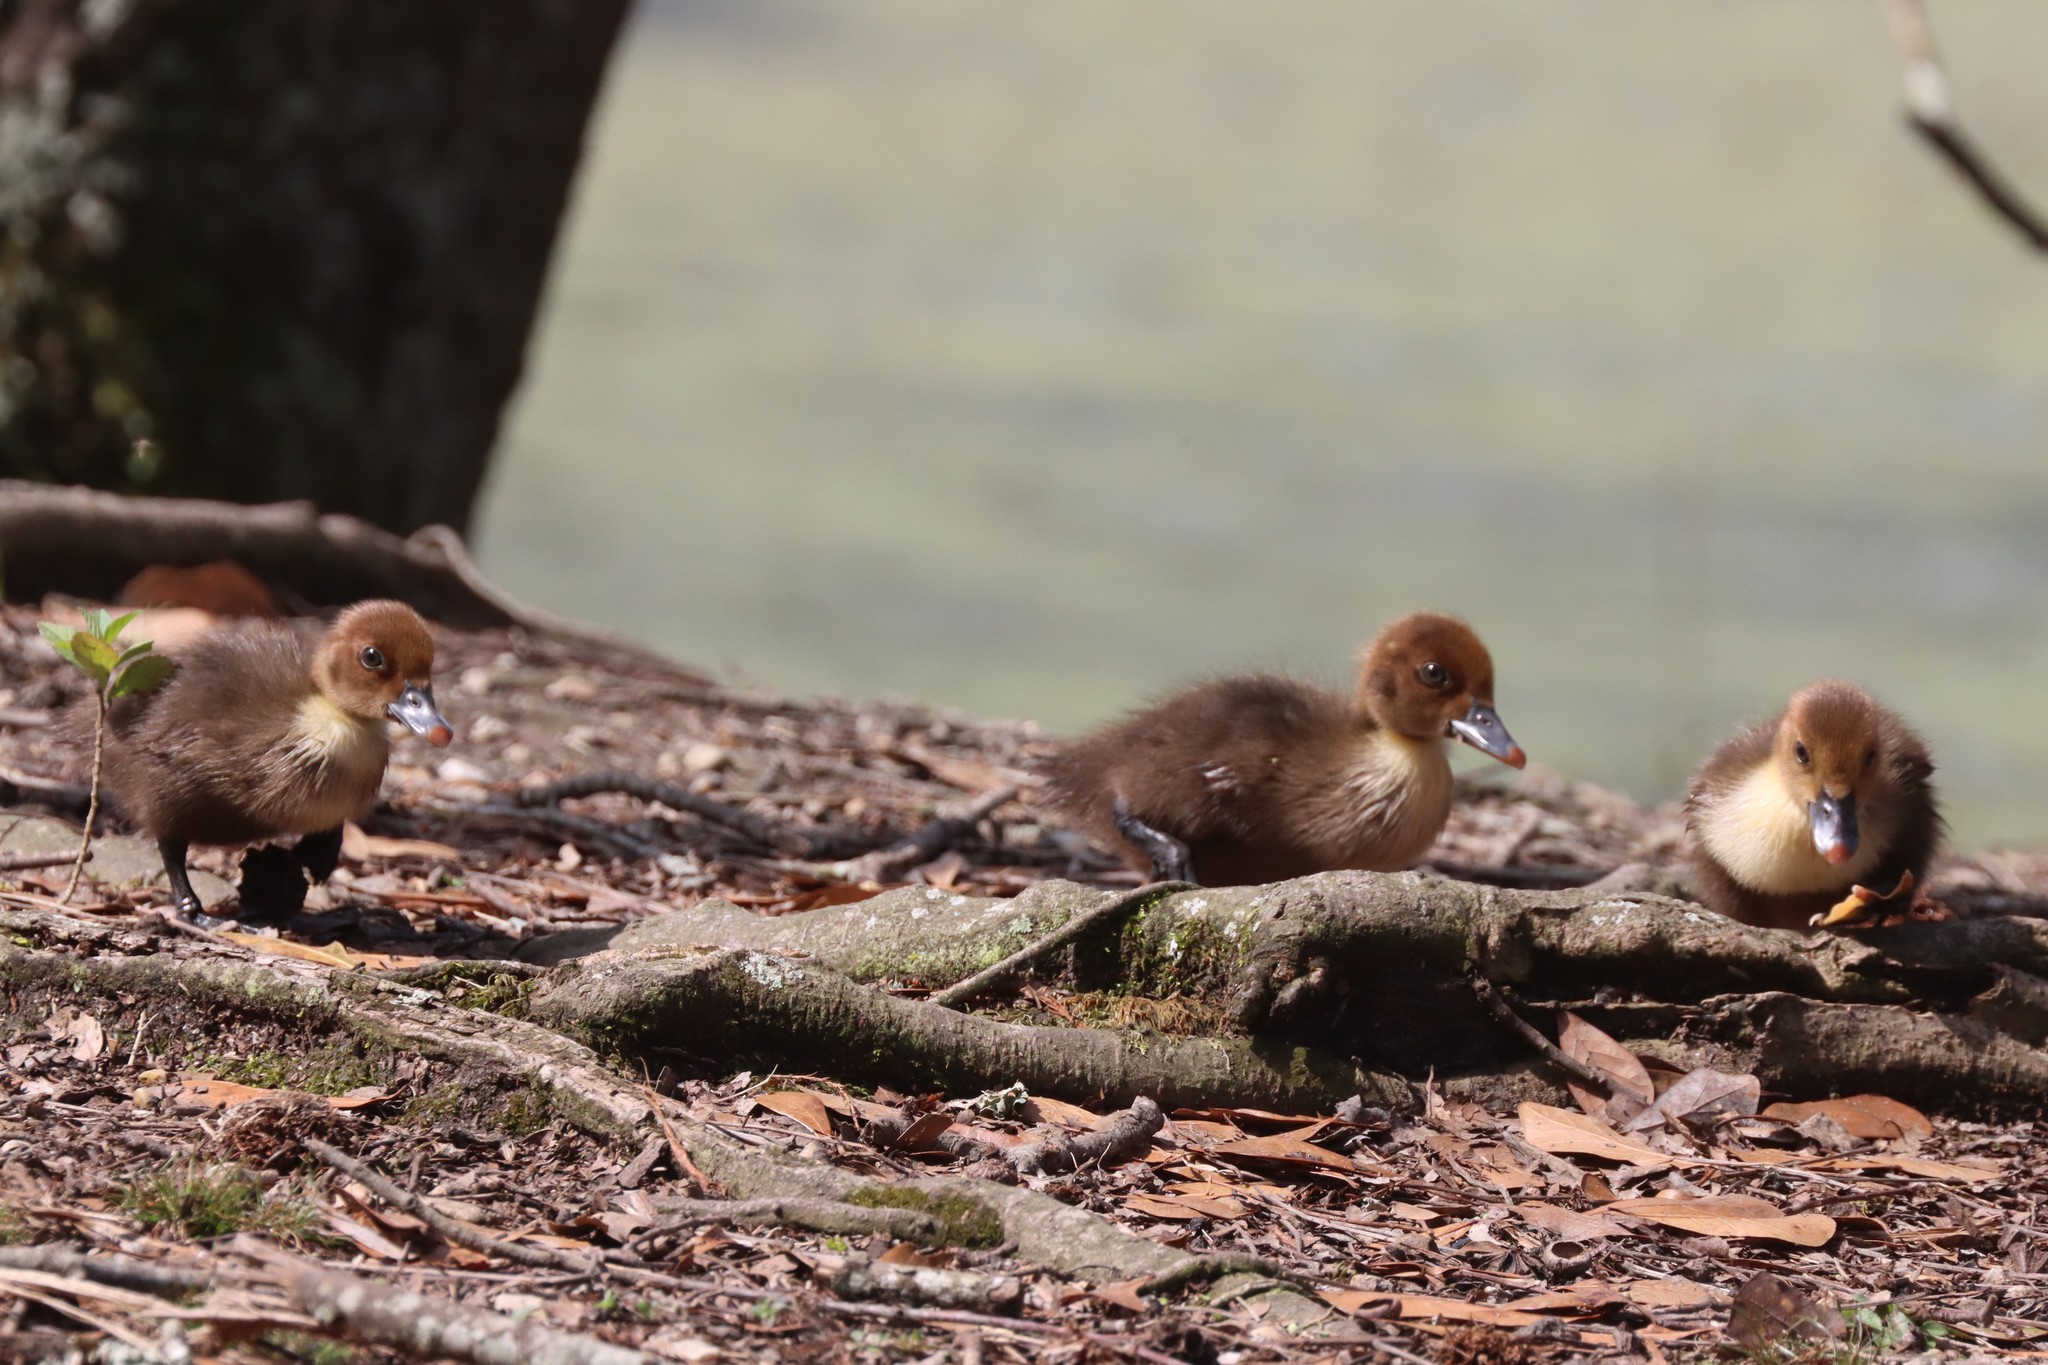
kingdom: Animalia
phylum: Chordata
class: Aves
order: Anseriformes
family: Anatidae
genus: Cairina
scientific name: Cairina moschata
